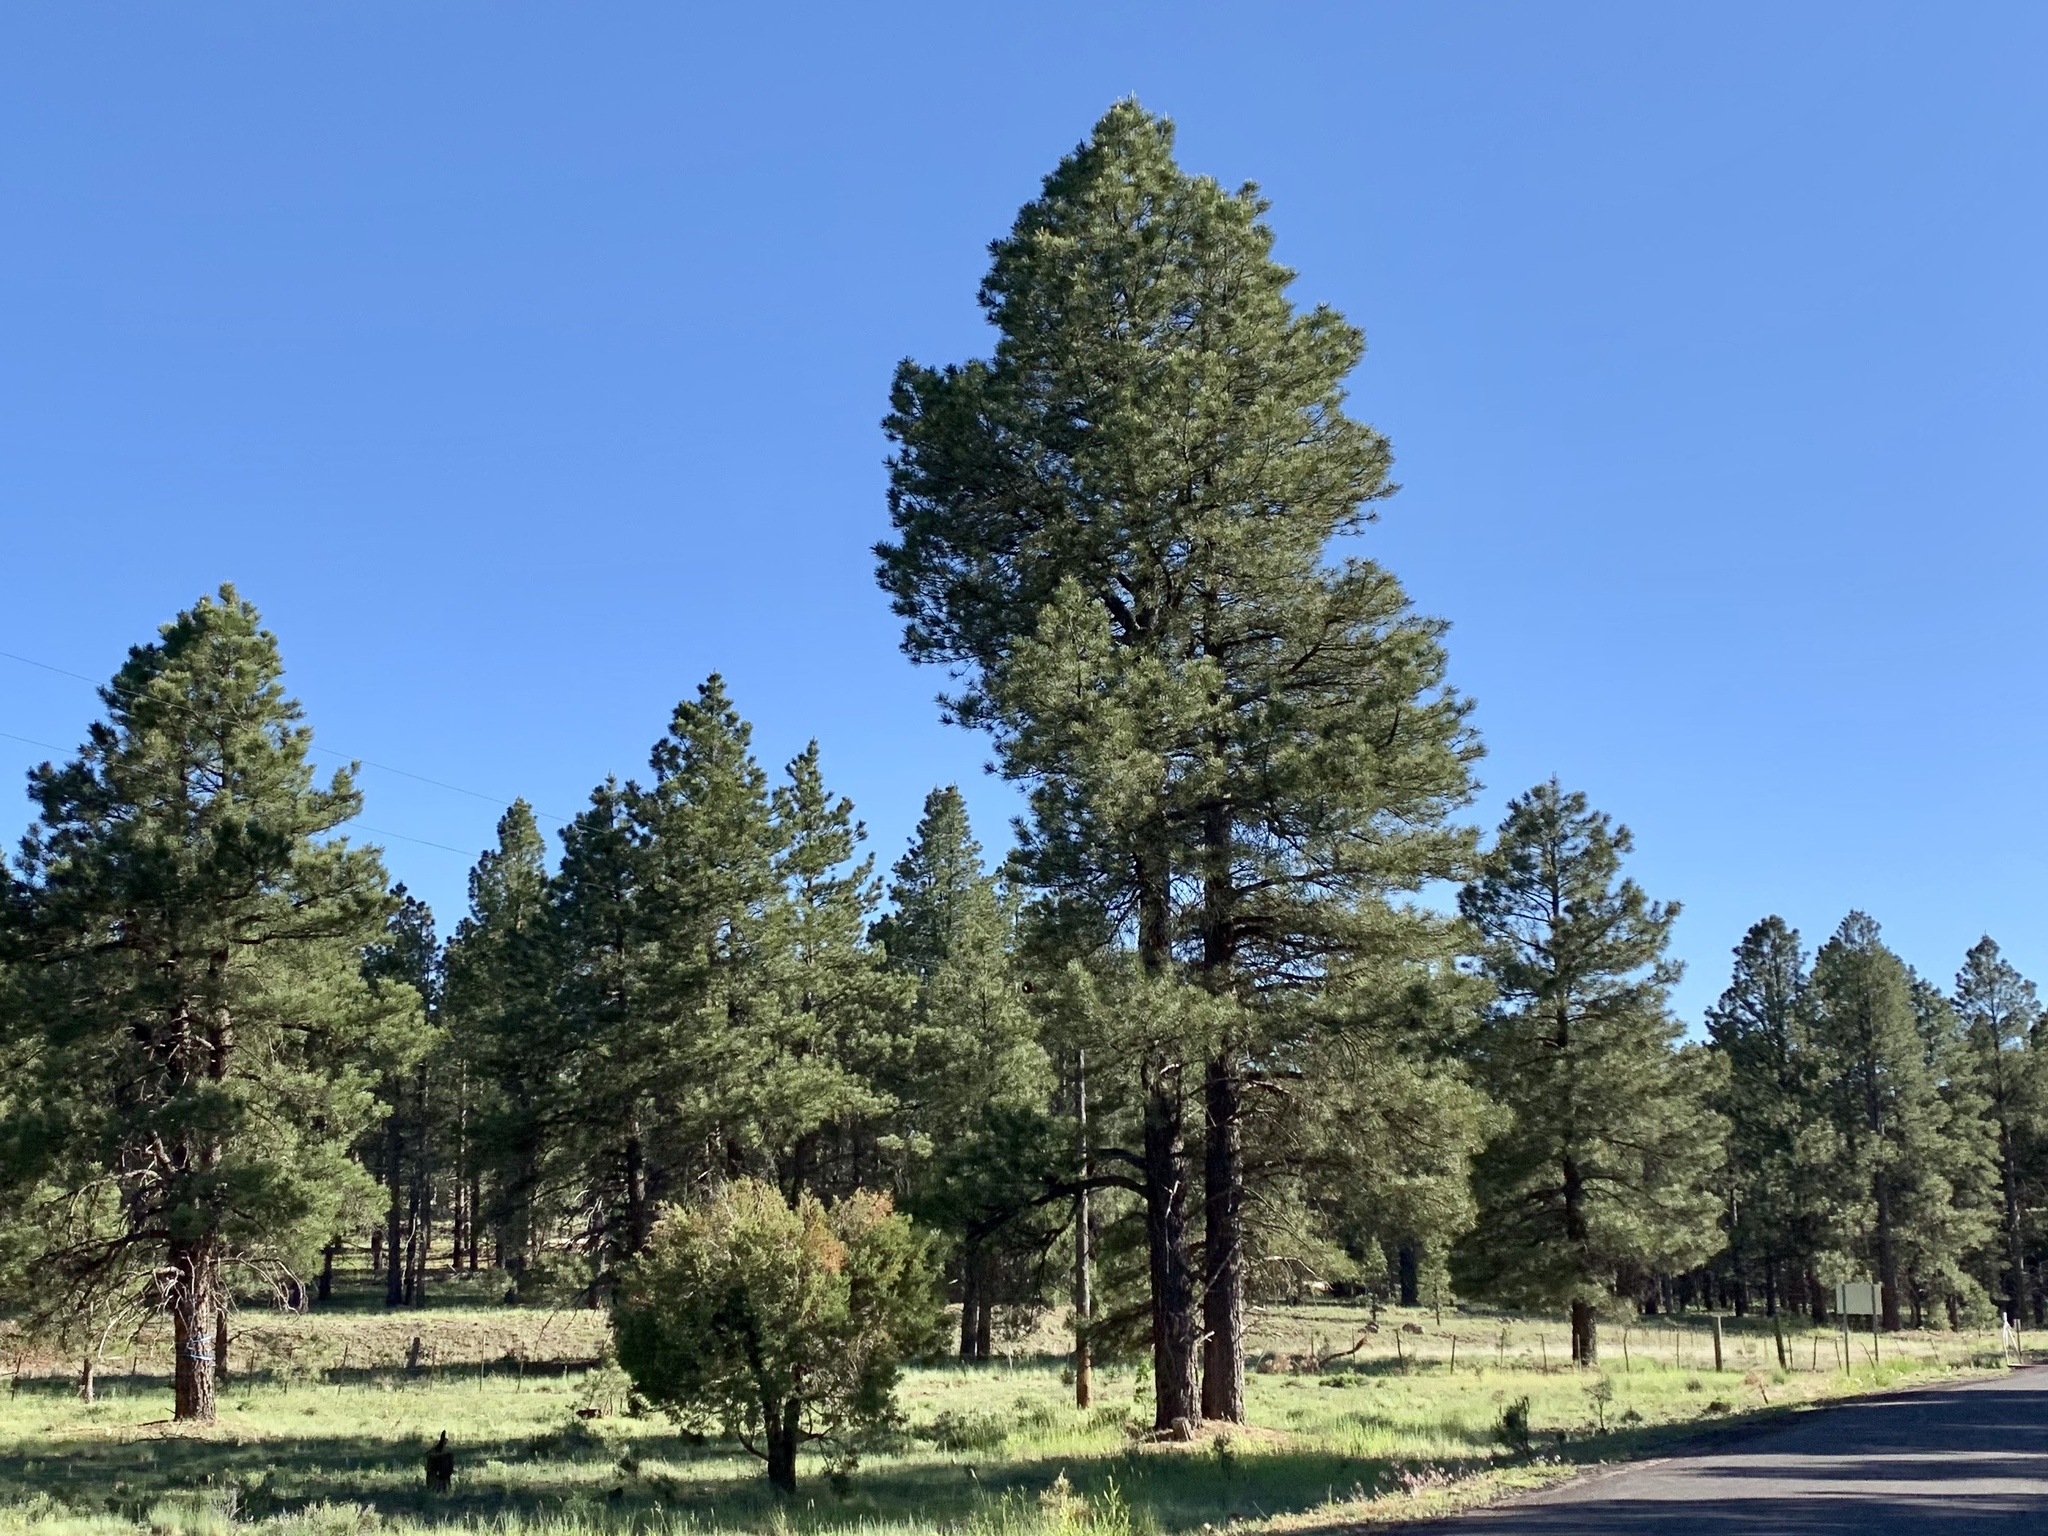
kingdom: Plantae
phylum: Tracheophyta
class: Pinopsida
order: Pinales
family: Pinaceae
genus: Pinus
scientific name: Pinus ponderosa
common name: Western yellow-pine
